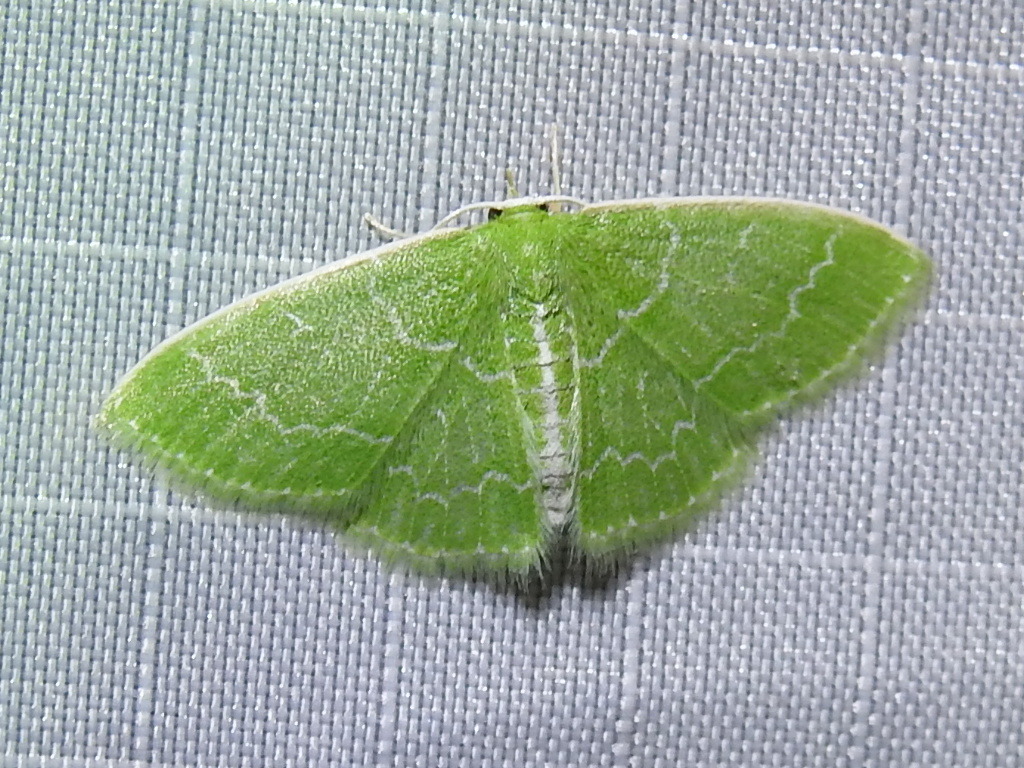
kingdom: Animalia
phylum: Arthropoda
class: Insecta
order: Lepidoptera
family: Geometridae
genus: Synchlora
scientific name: Synchlora frondaria
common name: Southern emerald
